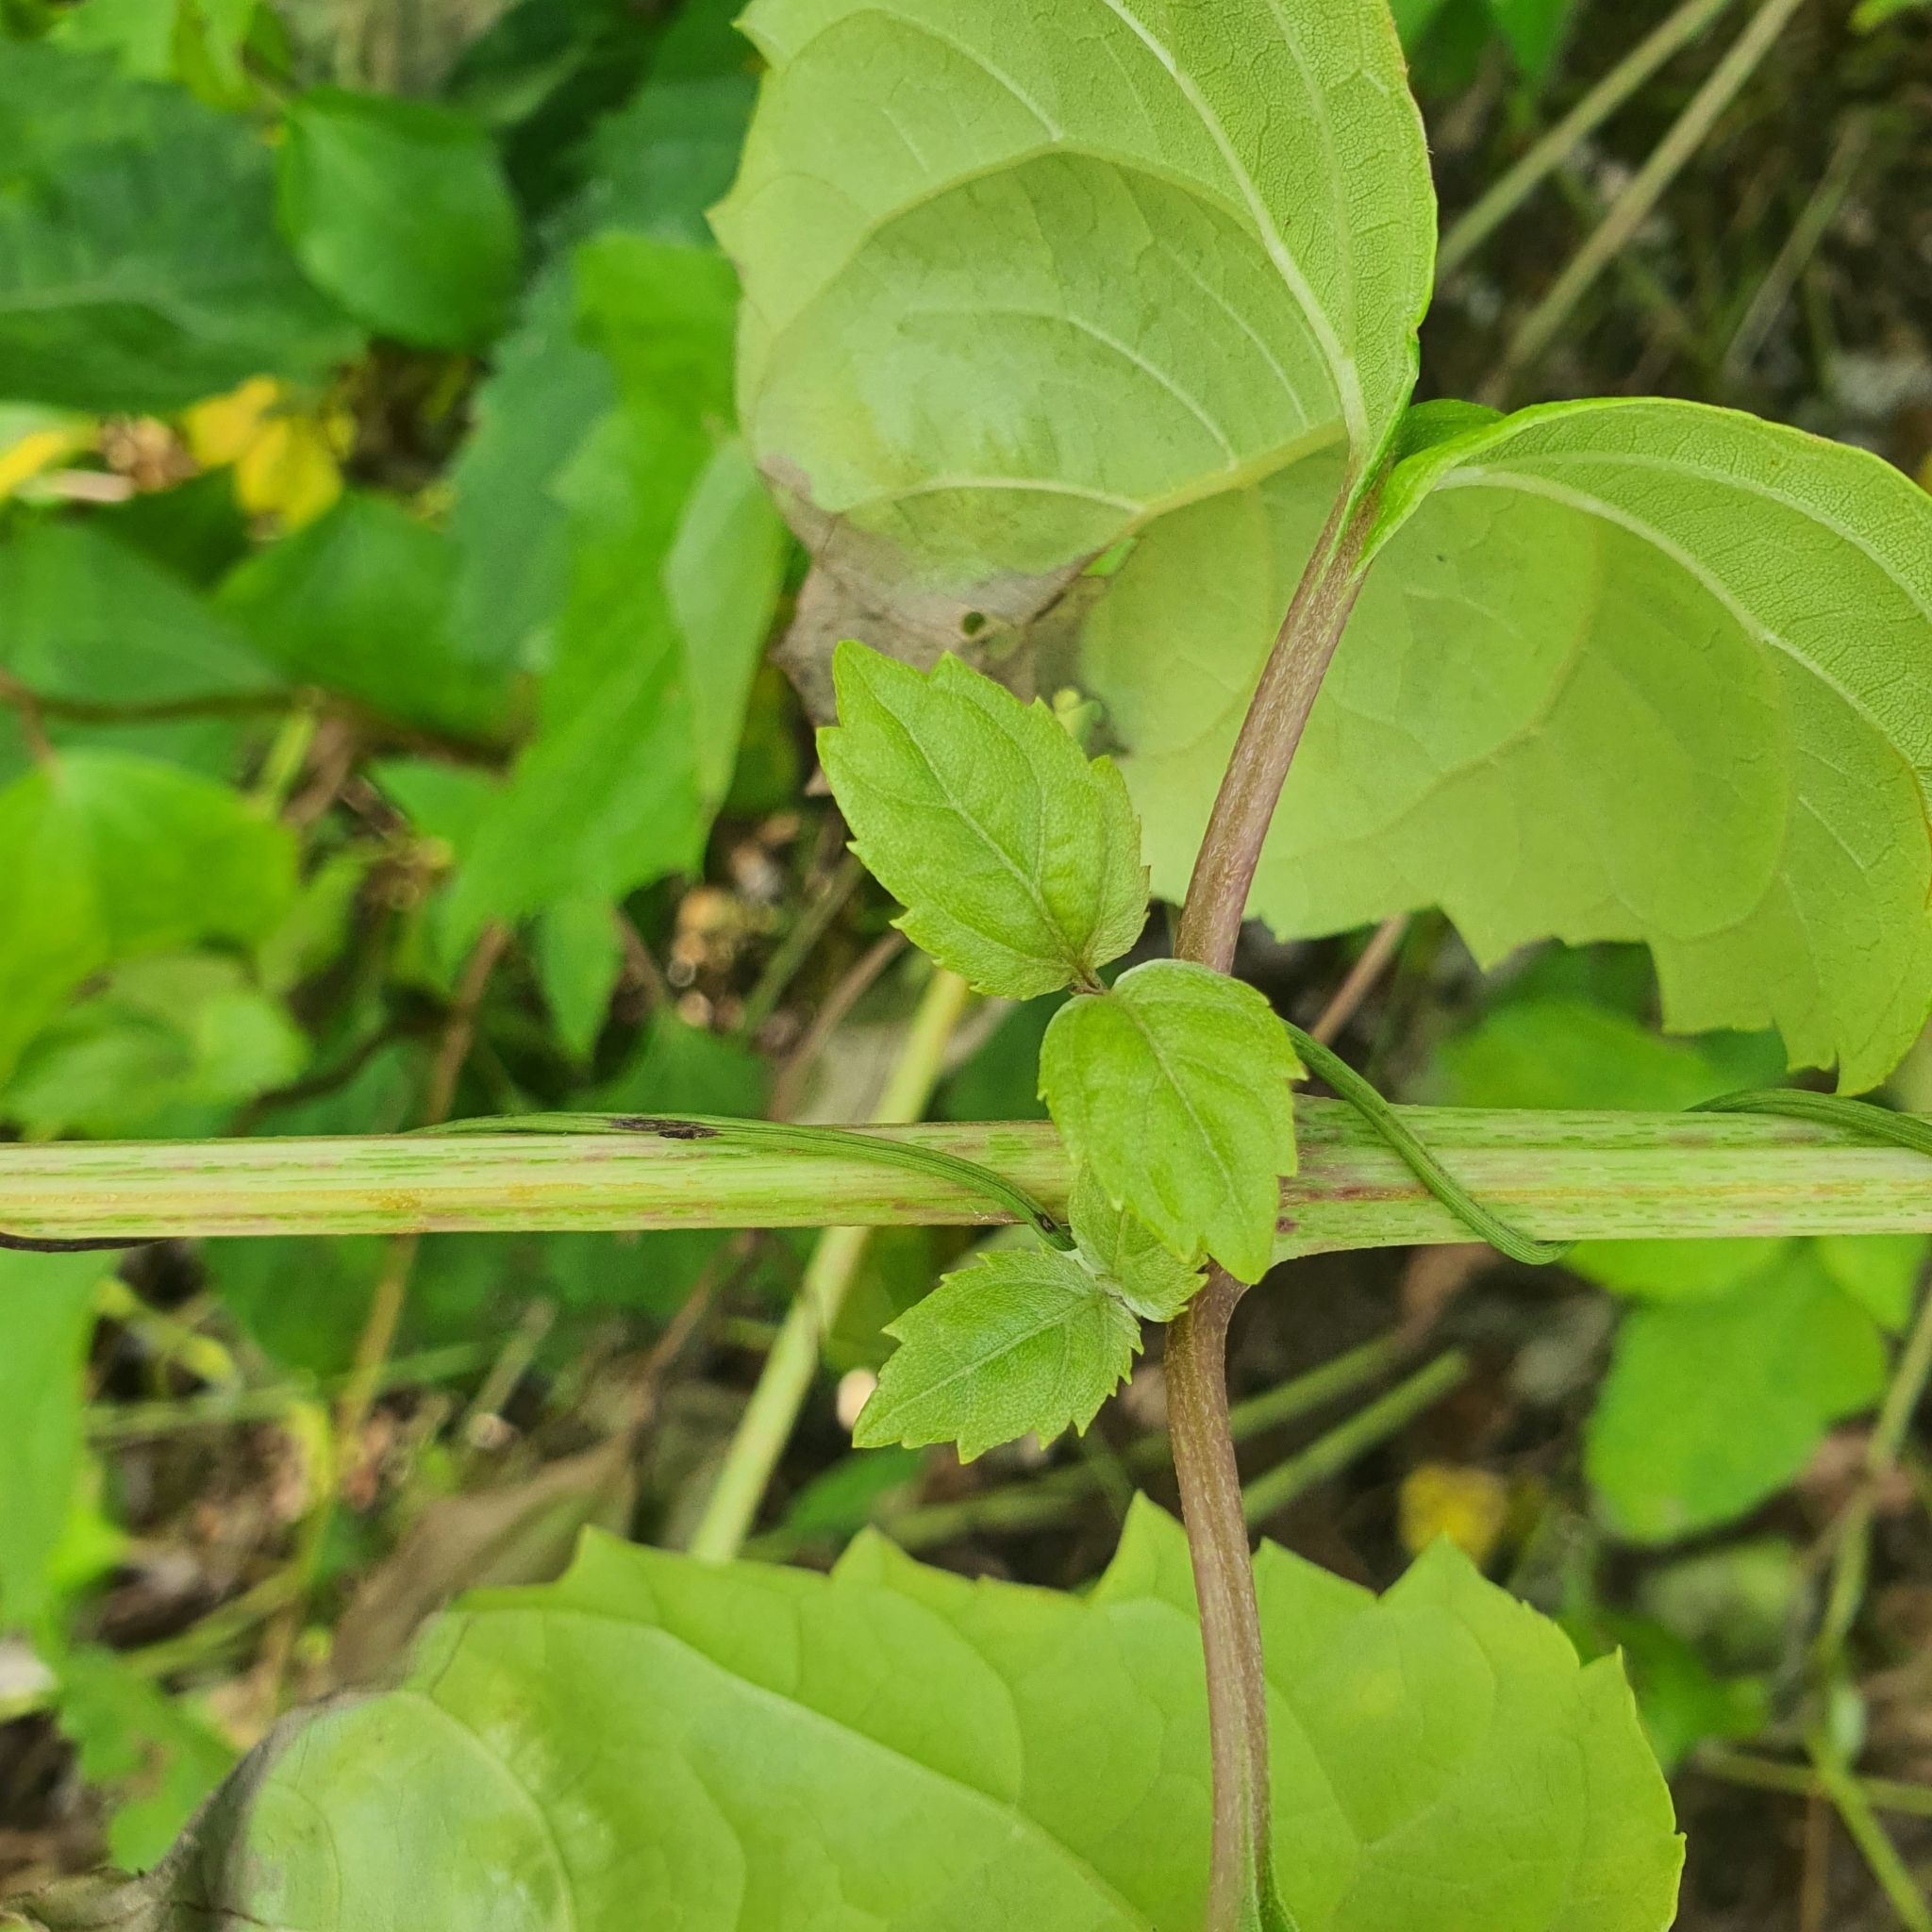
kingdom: Plantae
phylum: Tracheophyta
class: Magnoliopsida
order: Asterales
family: Asteraceae
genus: Wollastonia
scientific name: Wollastonia biflora
